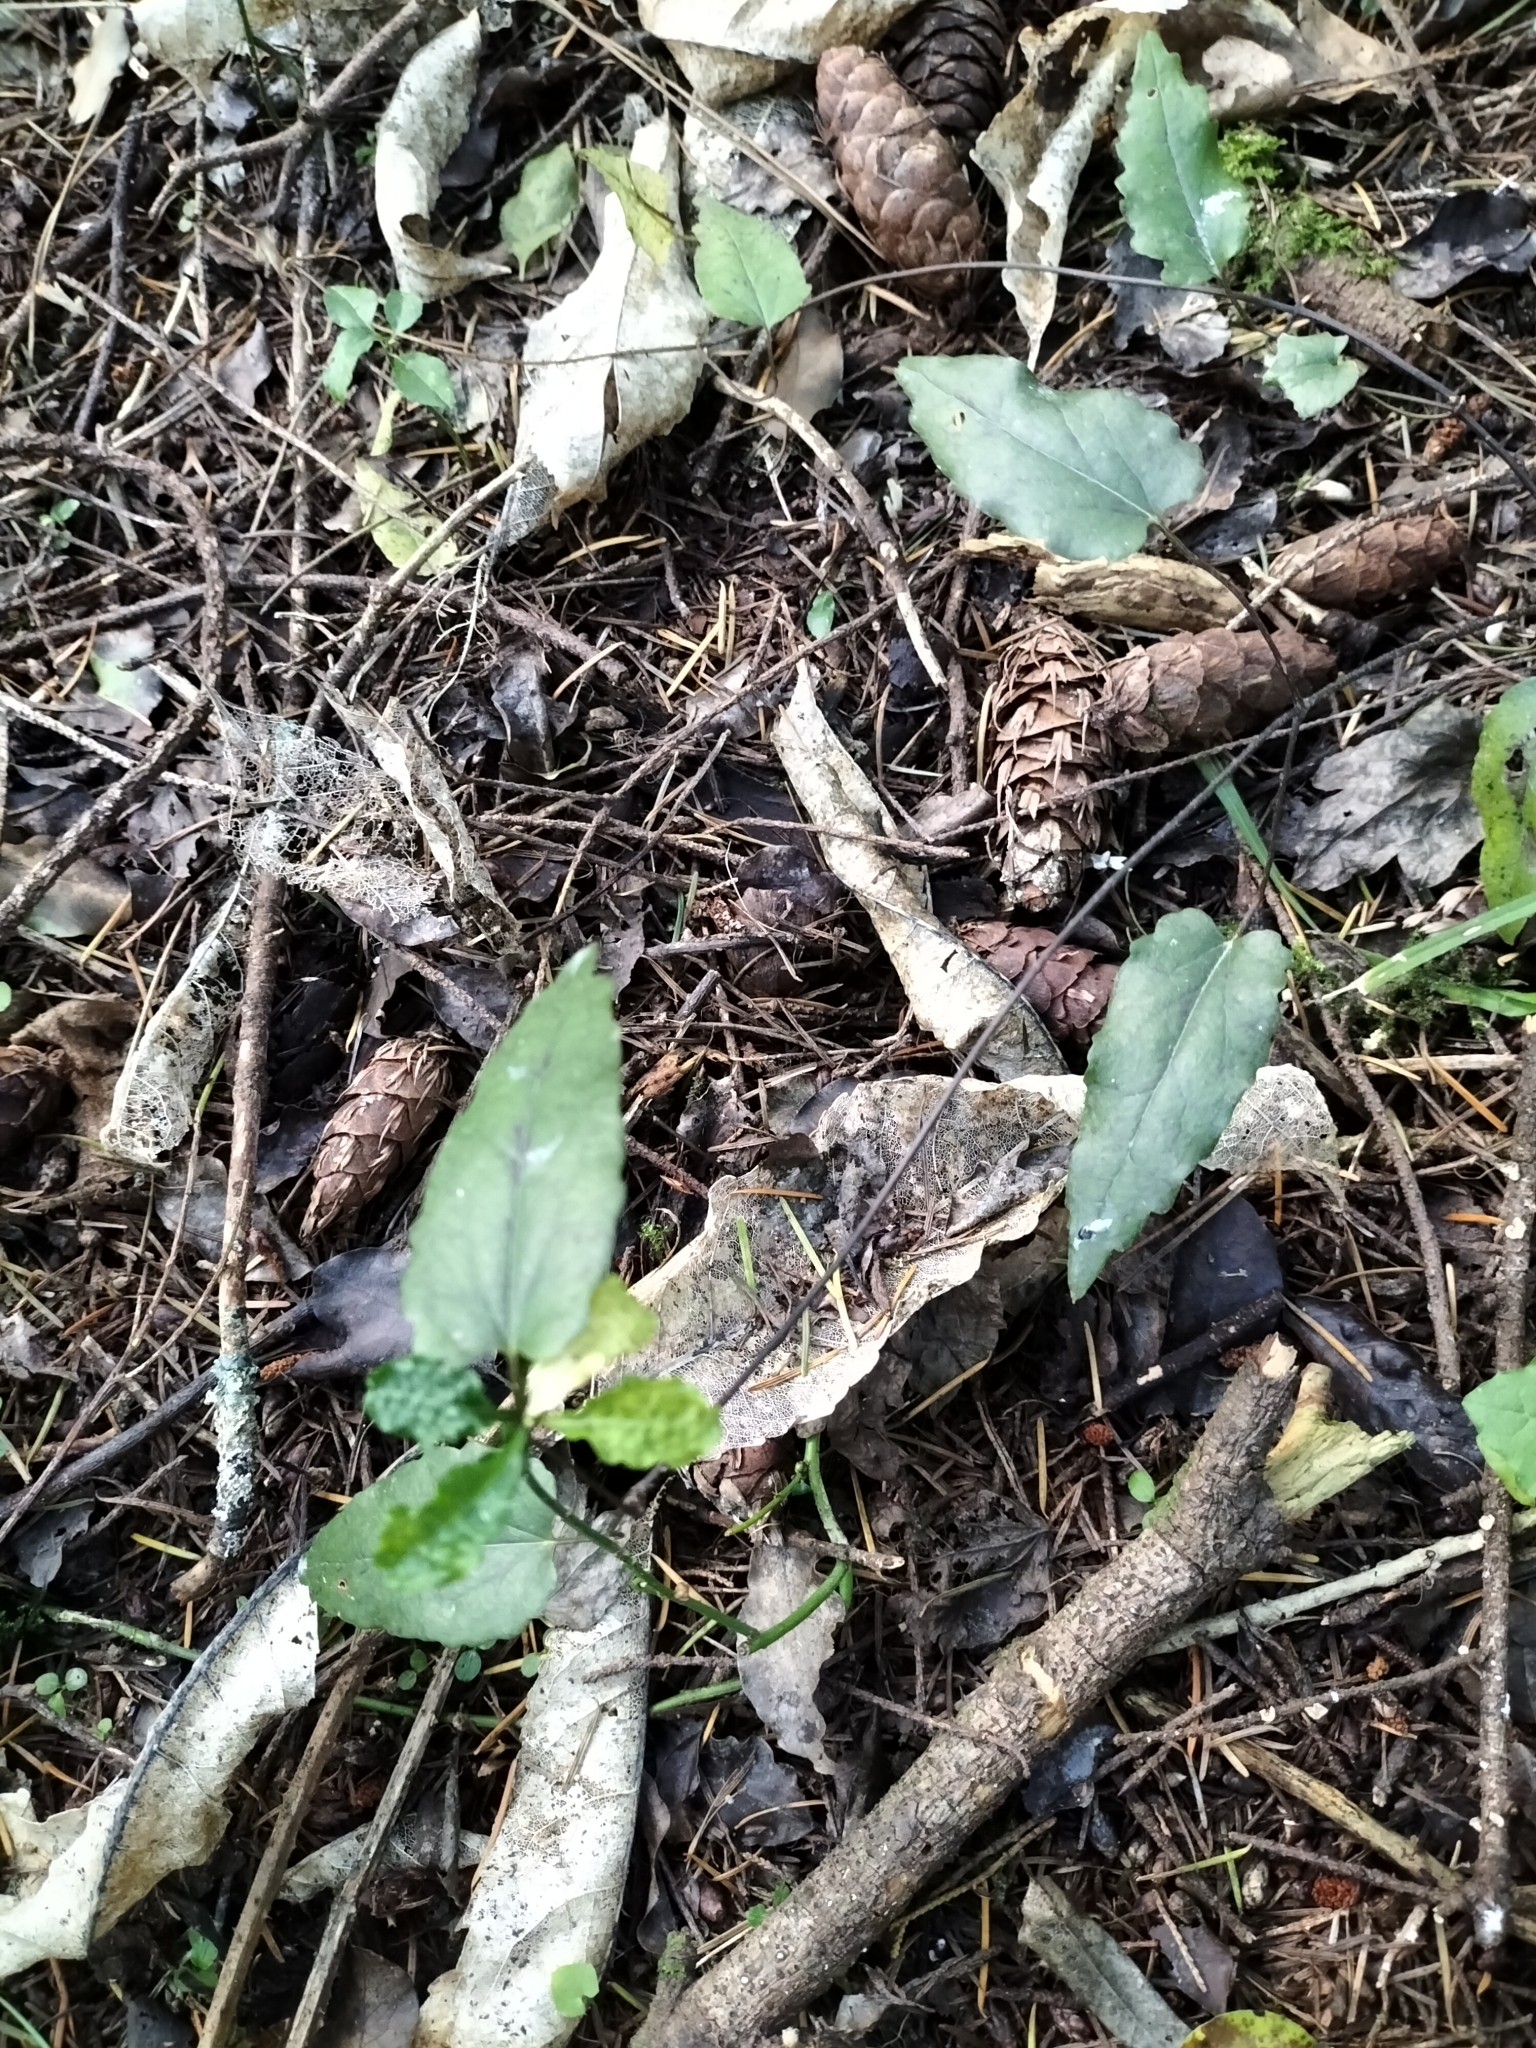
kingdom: Plantae
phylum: Tracheophyta
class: Magnoliopsida
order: Ranunculales
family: Ranunculaceae
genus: Clematis
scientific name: Clematis paniculata
